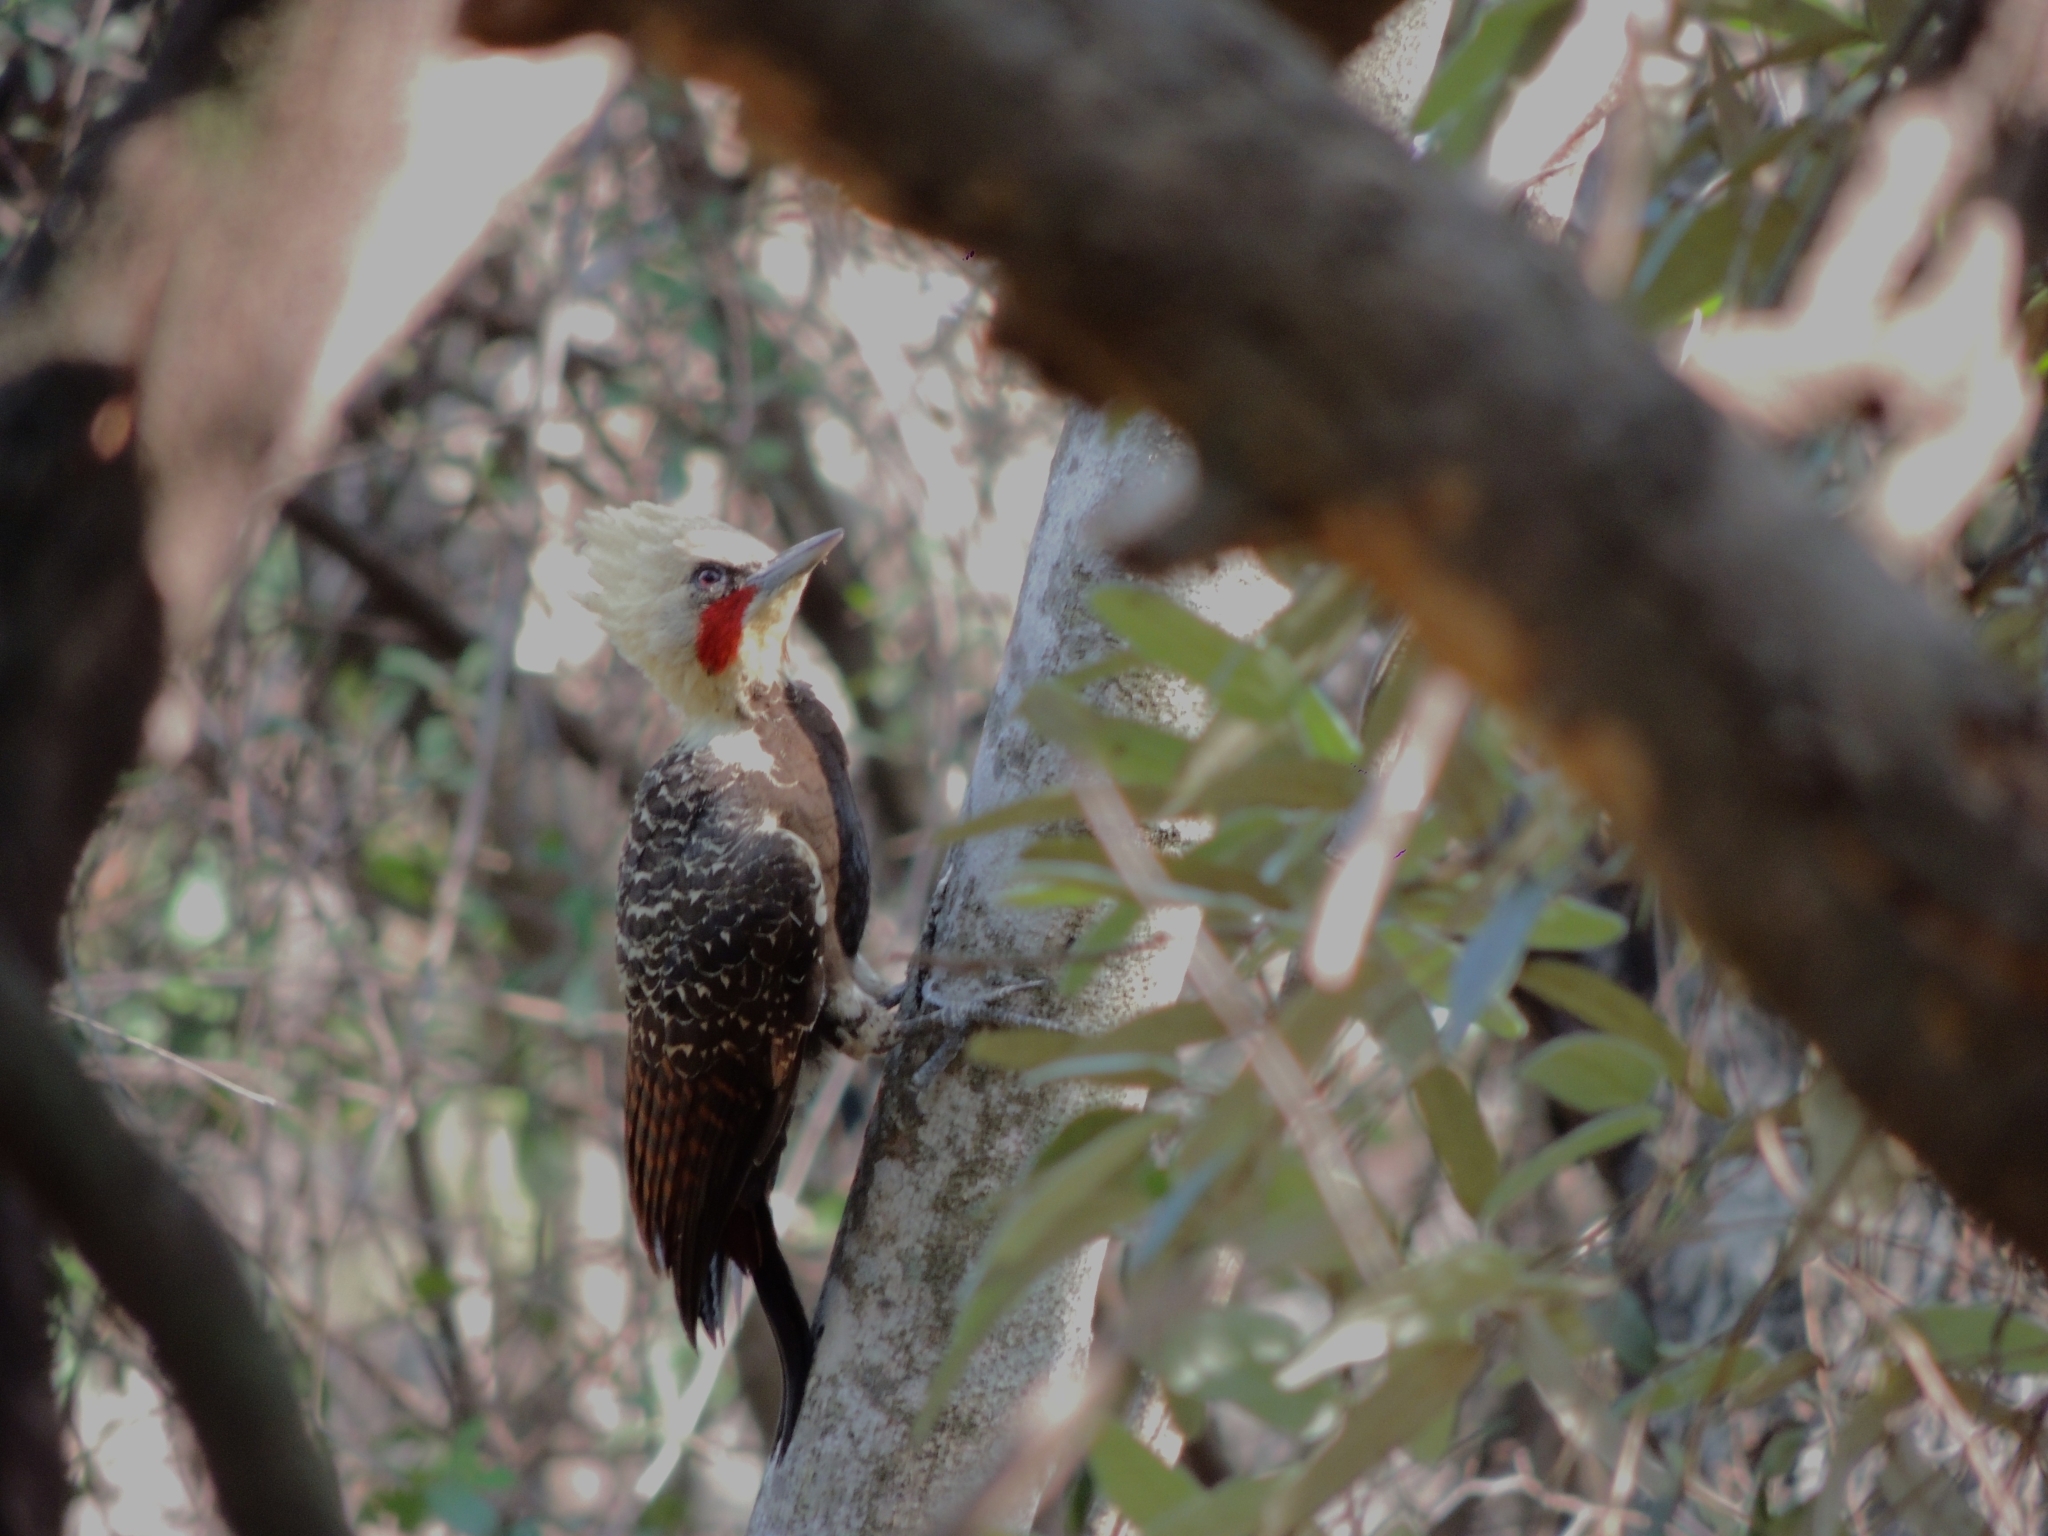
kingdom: Animalia
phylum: Chordata
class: Aves
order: Piciformes
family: Picidae
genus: Celeus
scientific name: Celeus lugubris
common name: Pale-crested woodpecker
